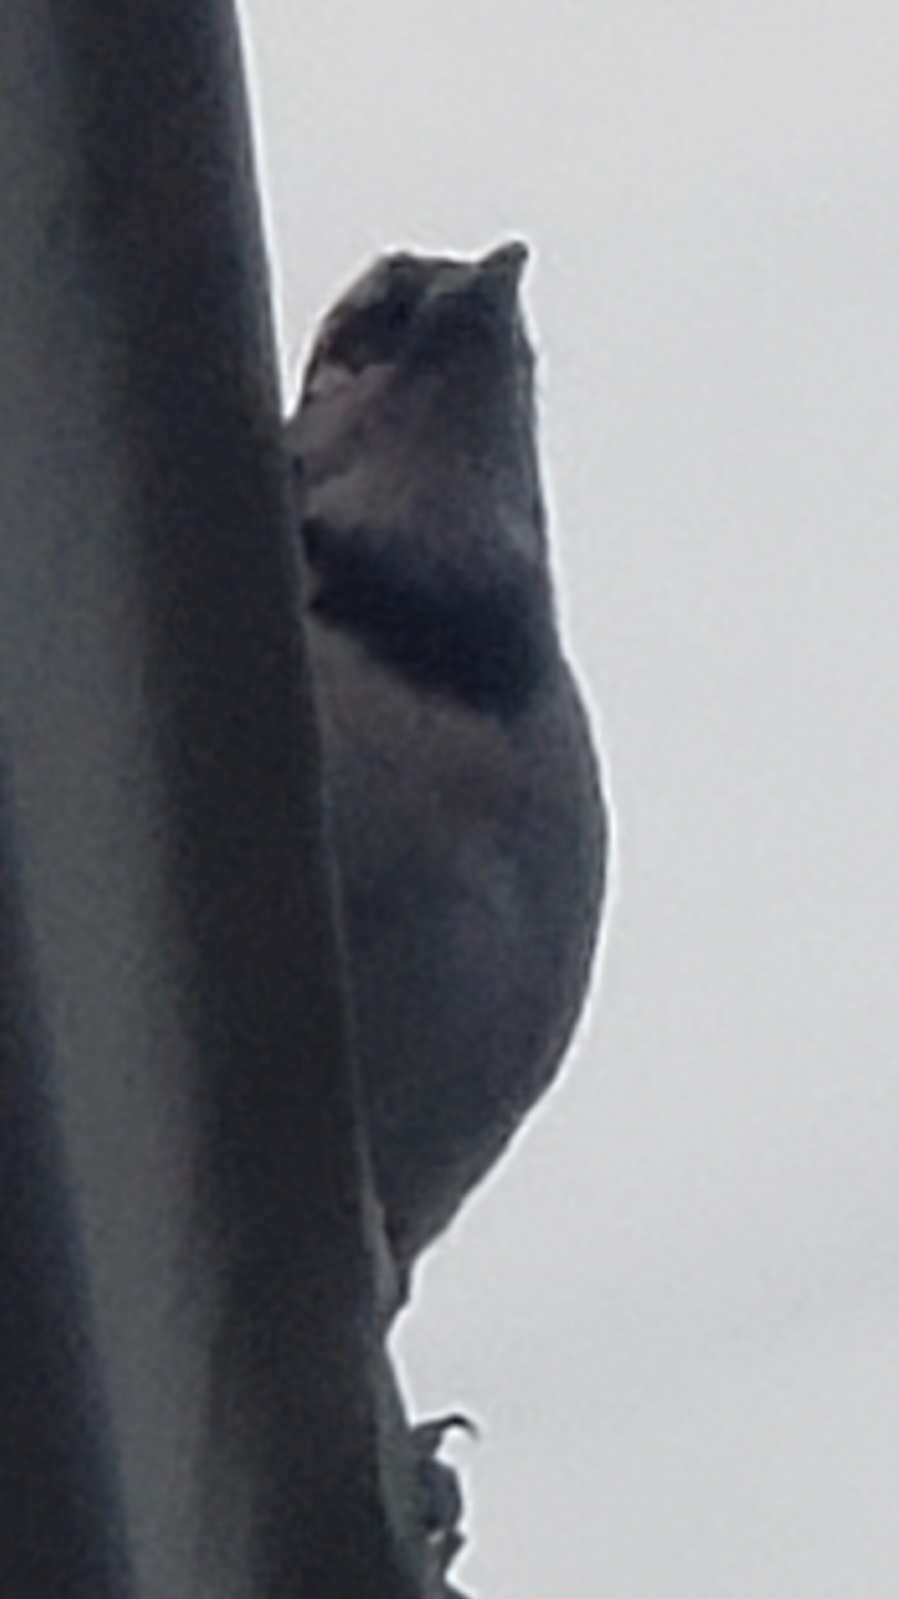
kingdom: Animalia
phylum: Chordata
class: Aves
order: Passeriformes
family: Corvidae
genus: Cyanocitta
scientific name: Cyanocitta cristata
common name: Blue jay
